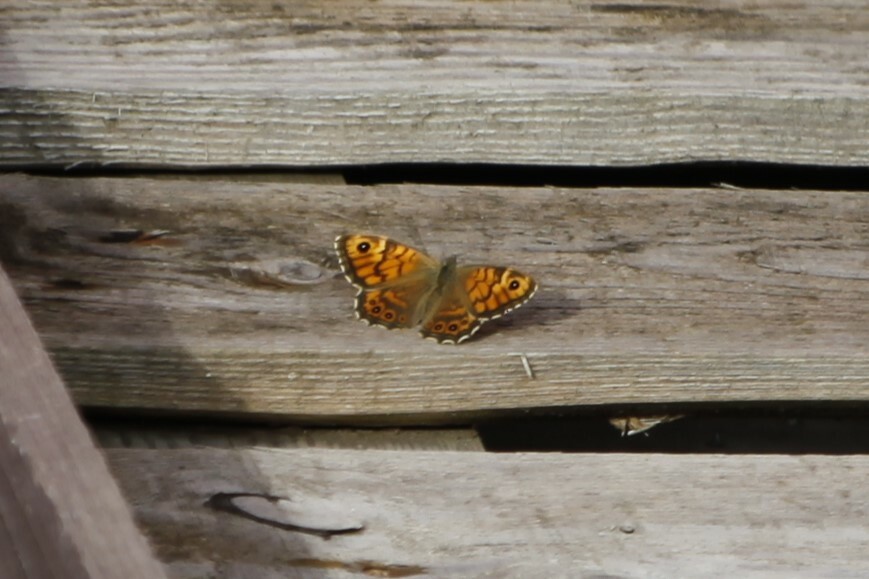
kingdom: Animalia
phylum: Arthropoda
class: Insecta
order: Lepidoptera
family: Nymphalidae
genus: Pararge
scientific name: Pararge Lasiommata megera
